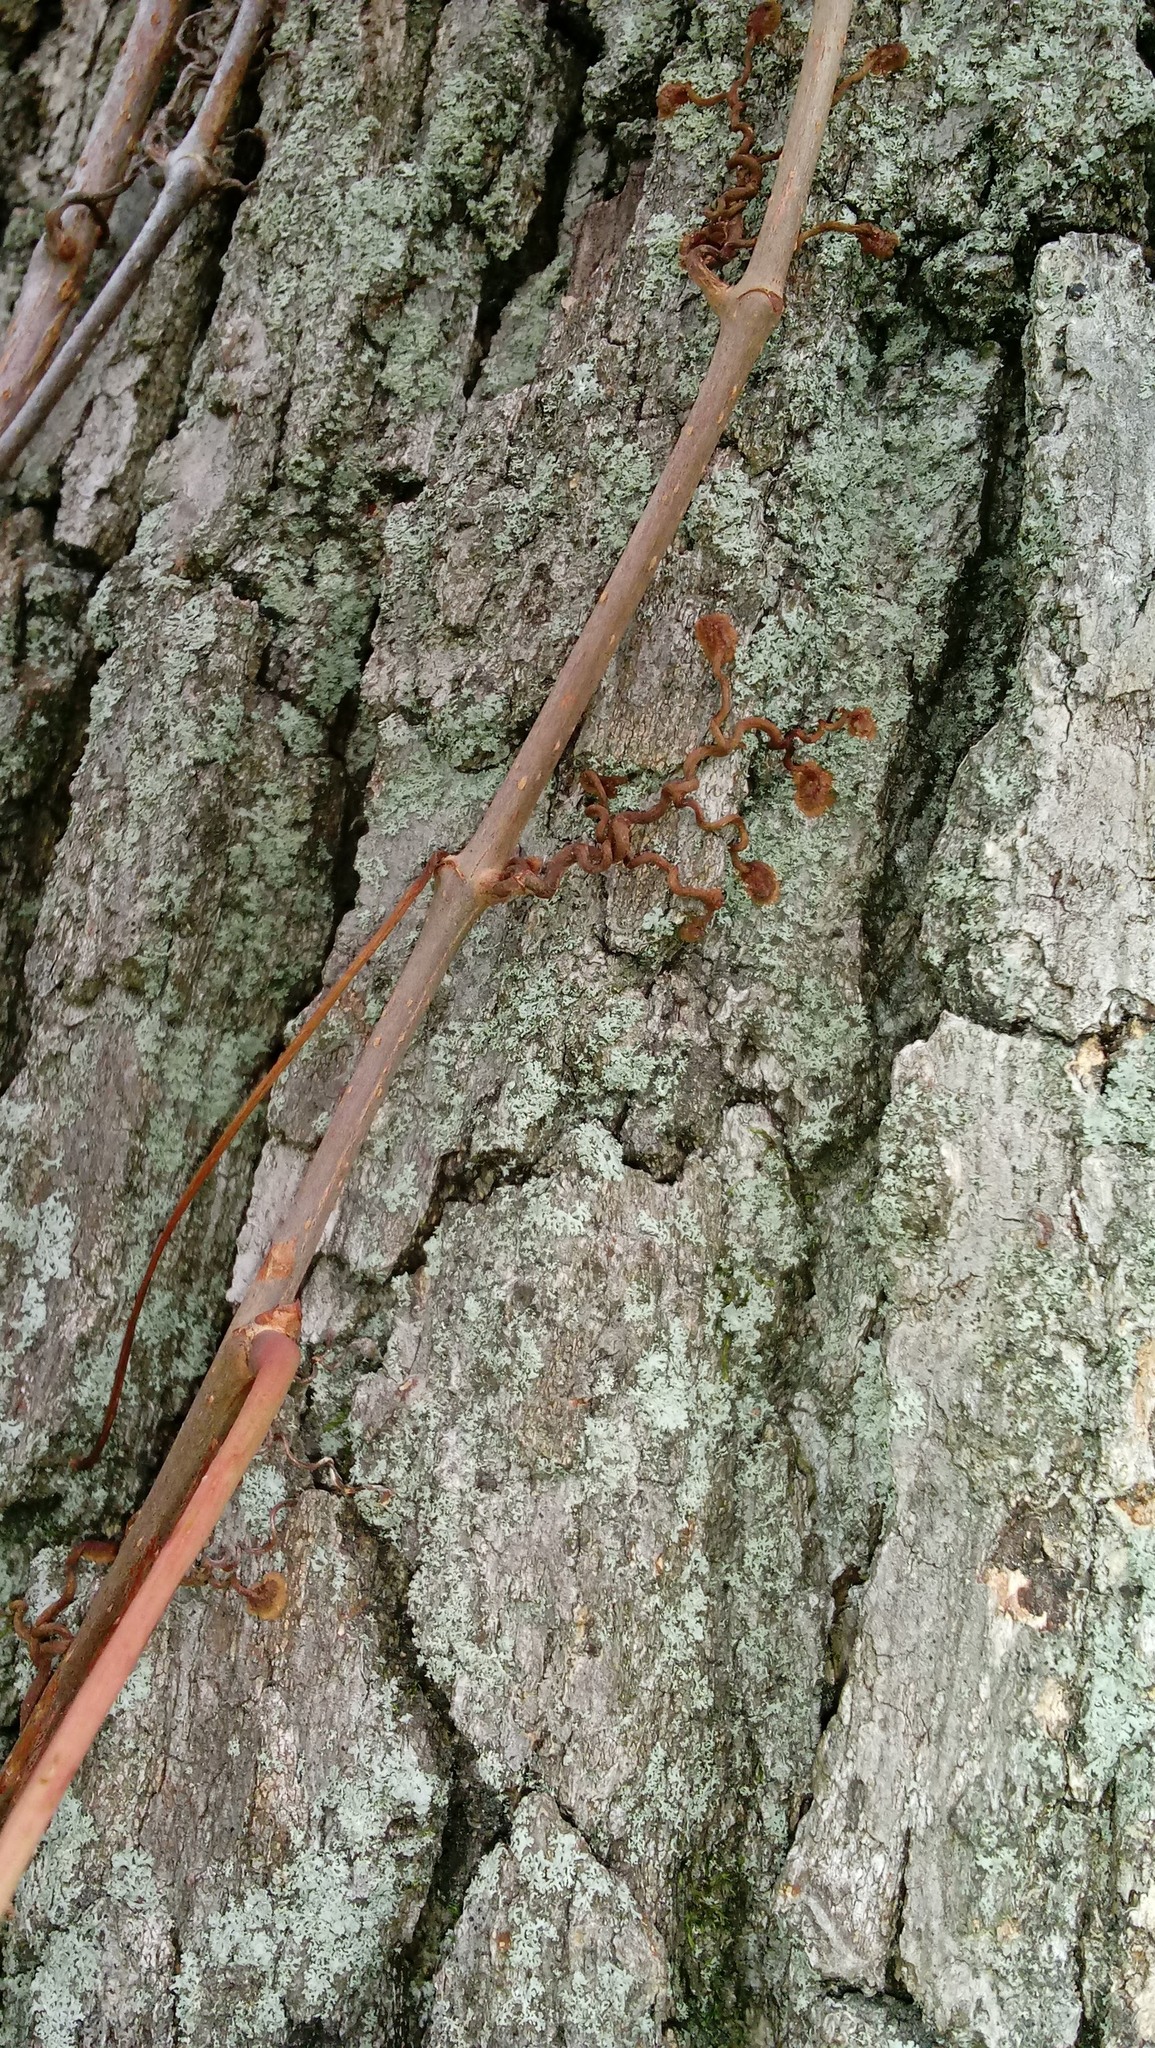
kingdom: Plantae
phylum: Tracheophyta
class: Magnoliopsida
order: Vitales
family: Vitaceae
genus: Parthenocissus
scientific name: Parthenocissus quinquefolia
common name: Virginia-creeper
